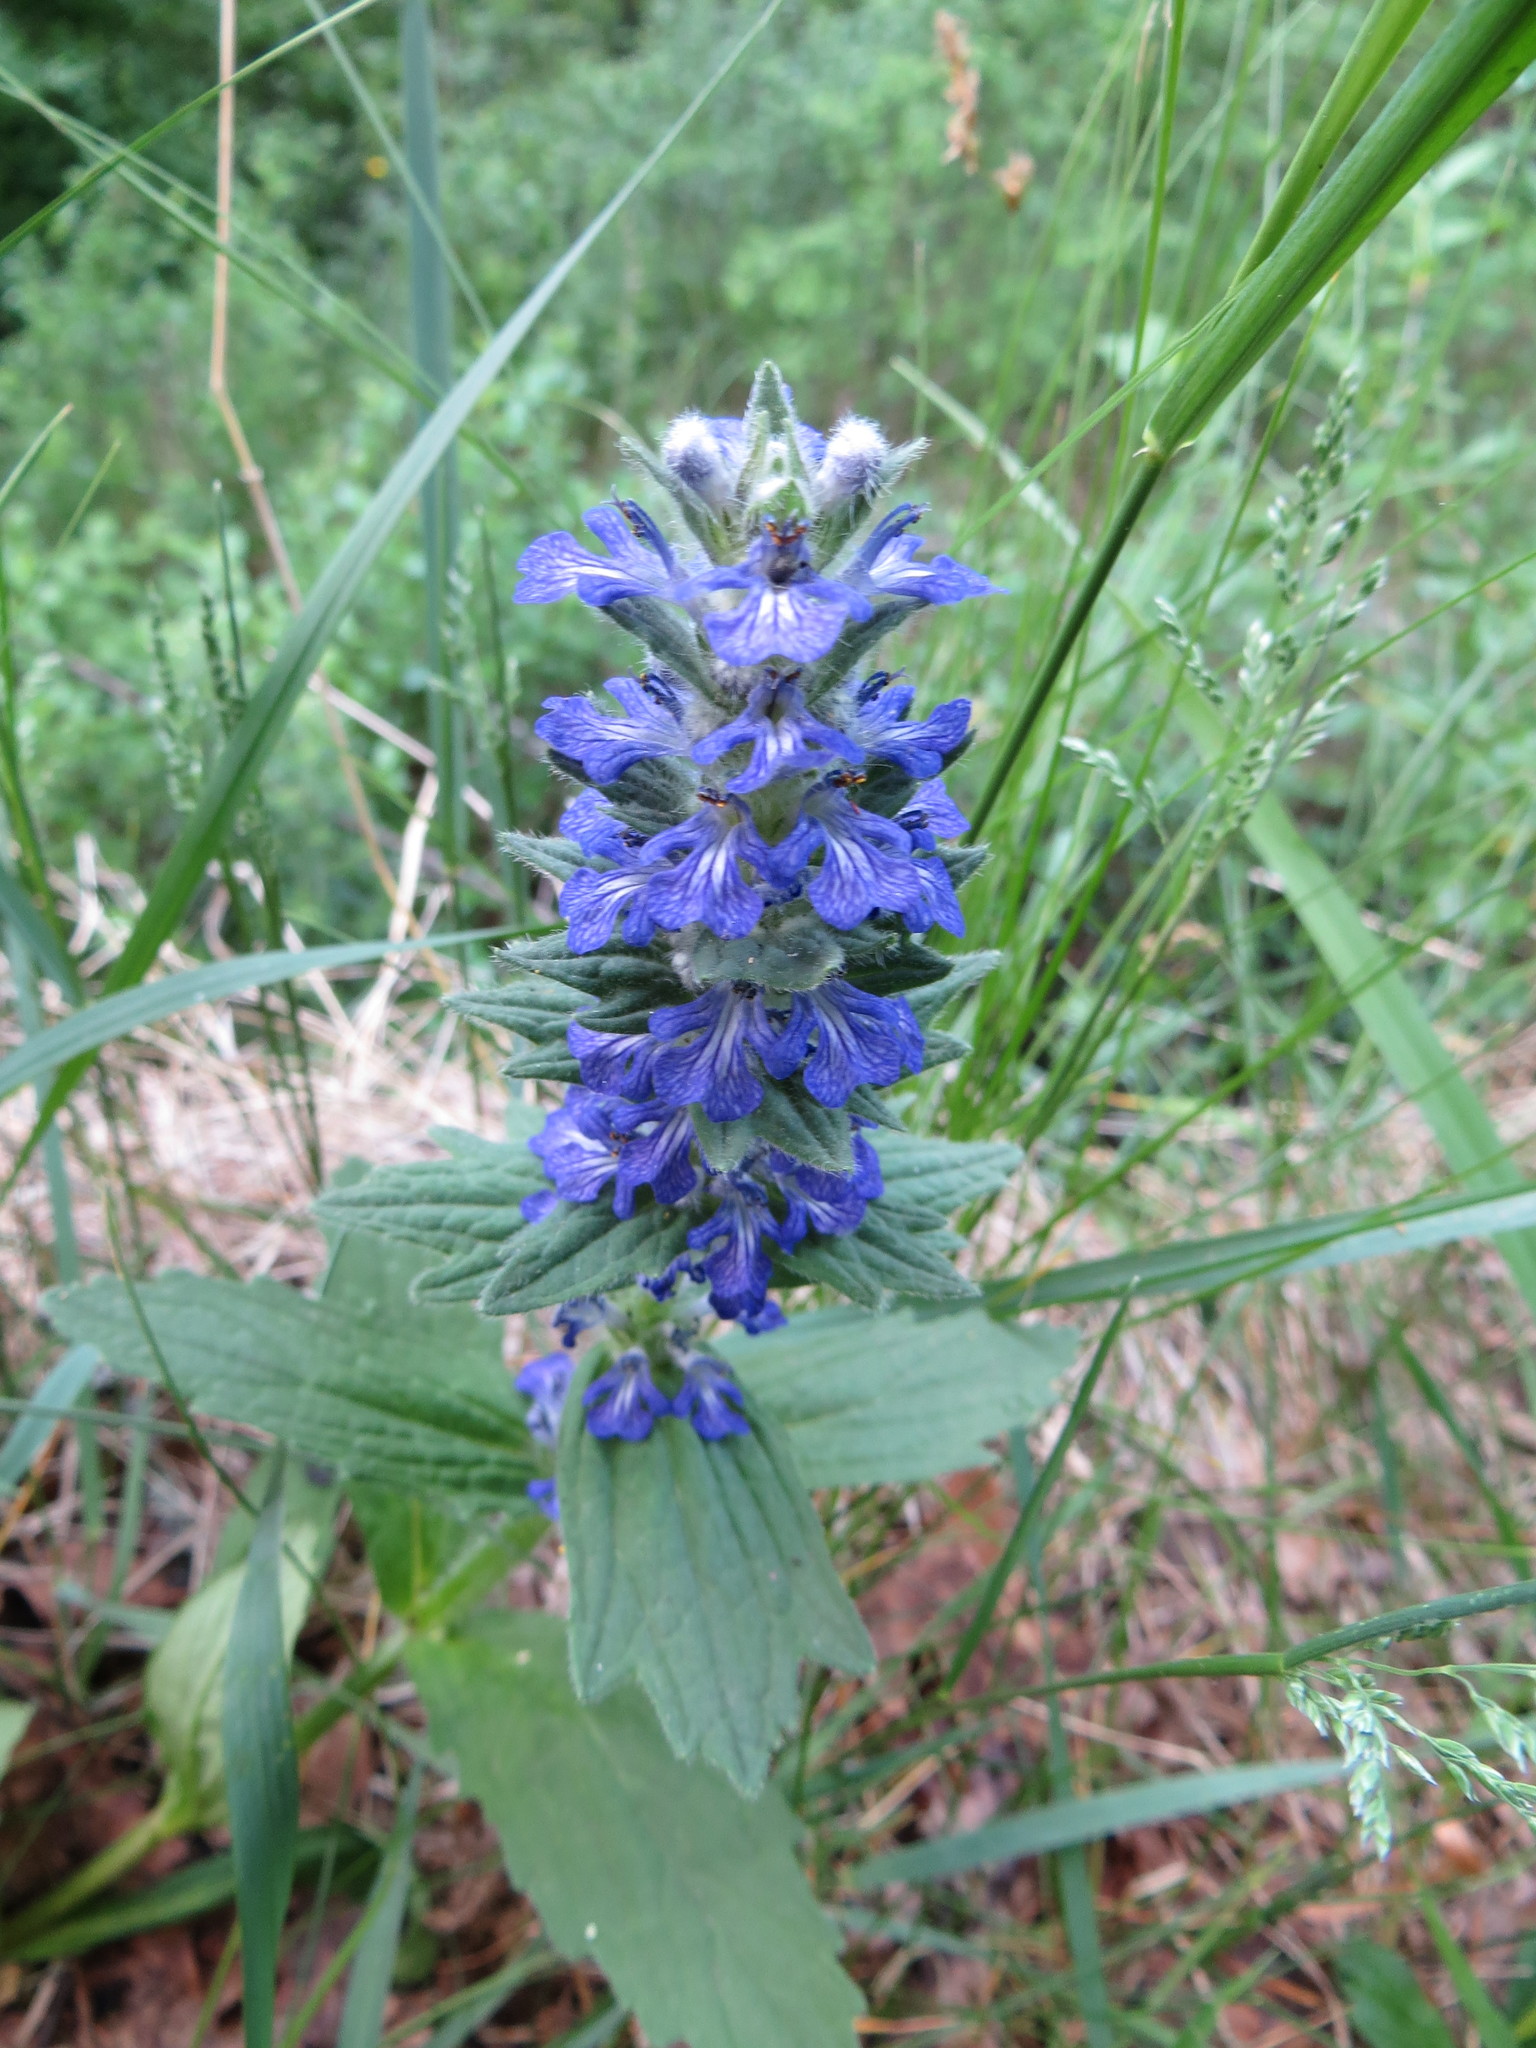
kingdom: Plantae
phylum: Tracheophyta
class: Magnoliopsida
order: Lamiales
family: Lamiaceae
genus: Ajuga
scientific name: Ajuga genevensis
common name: Blue bugle
